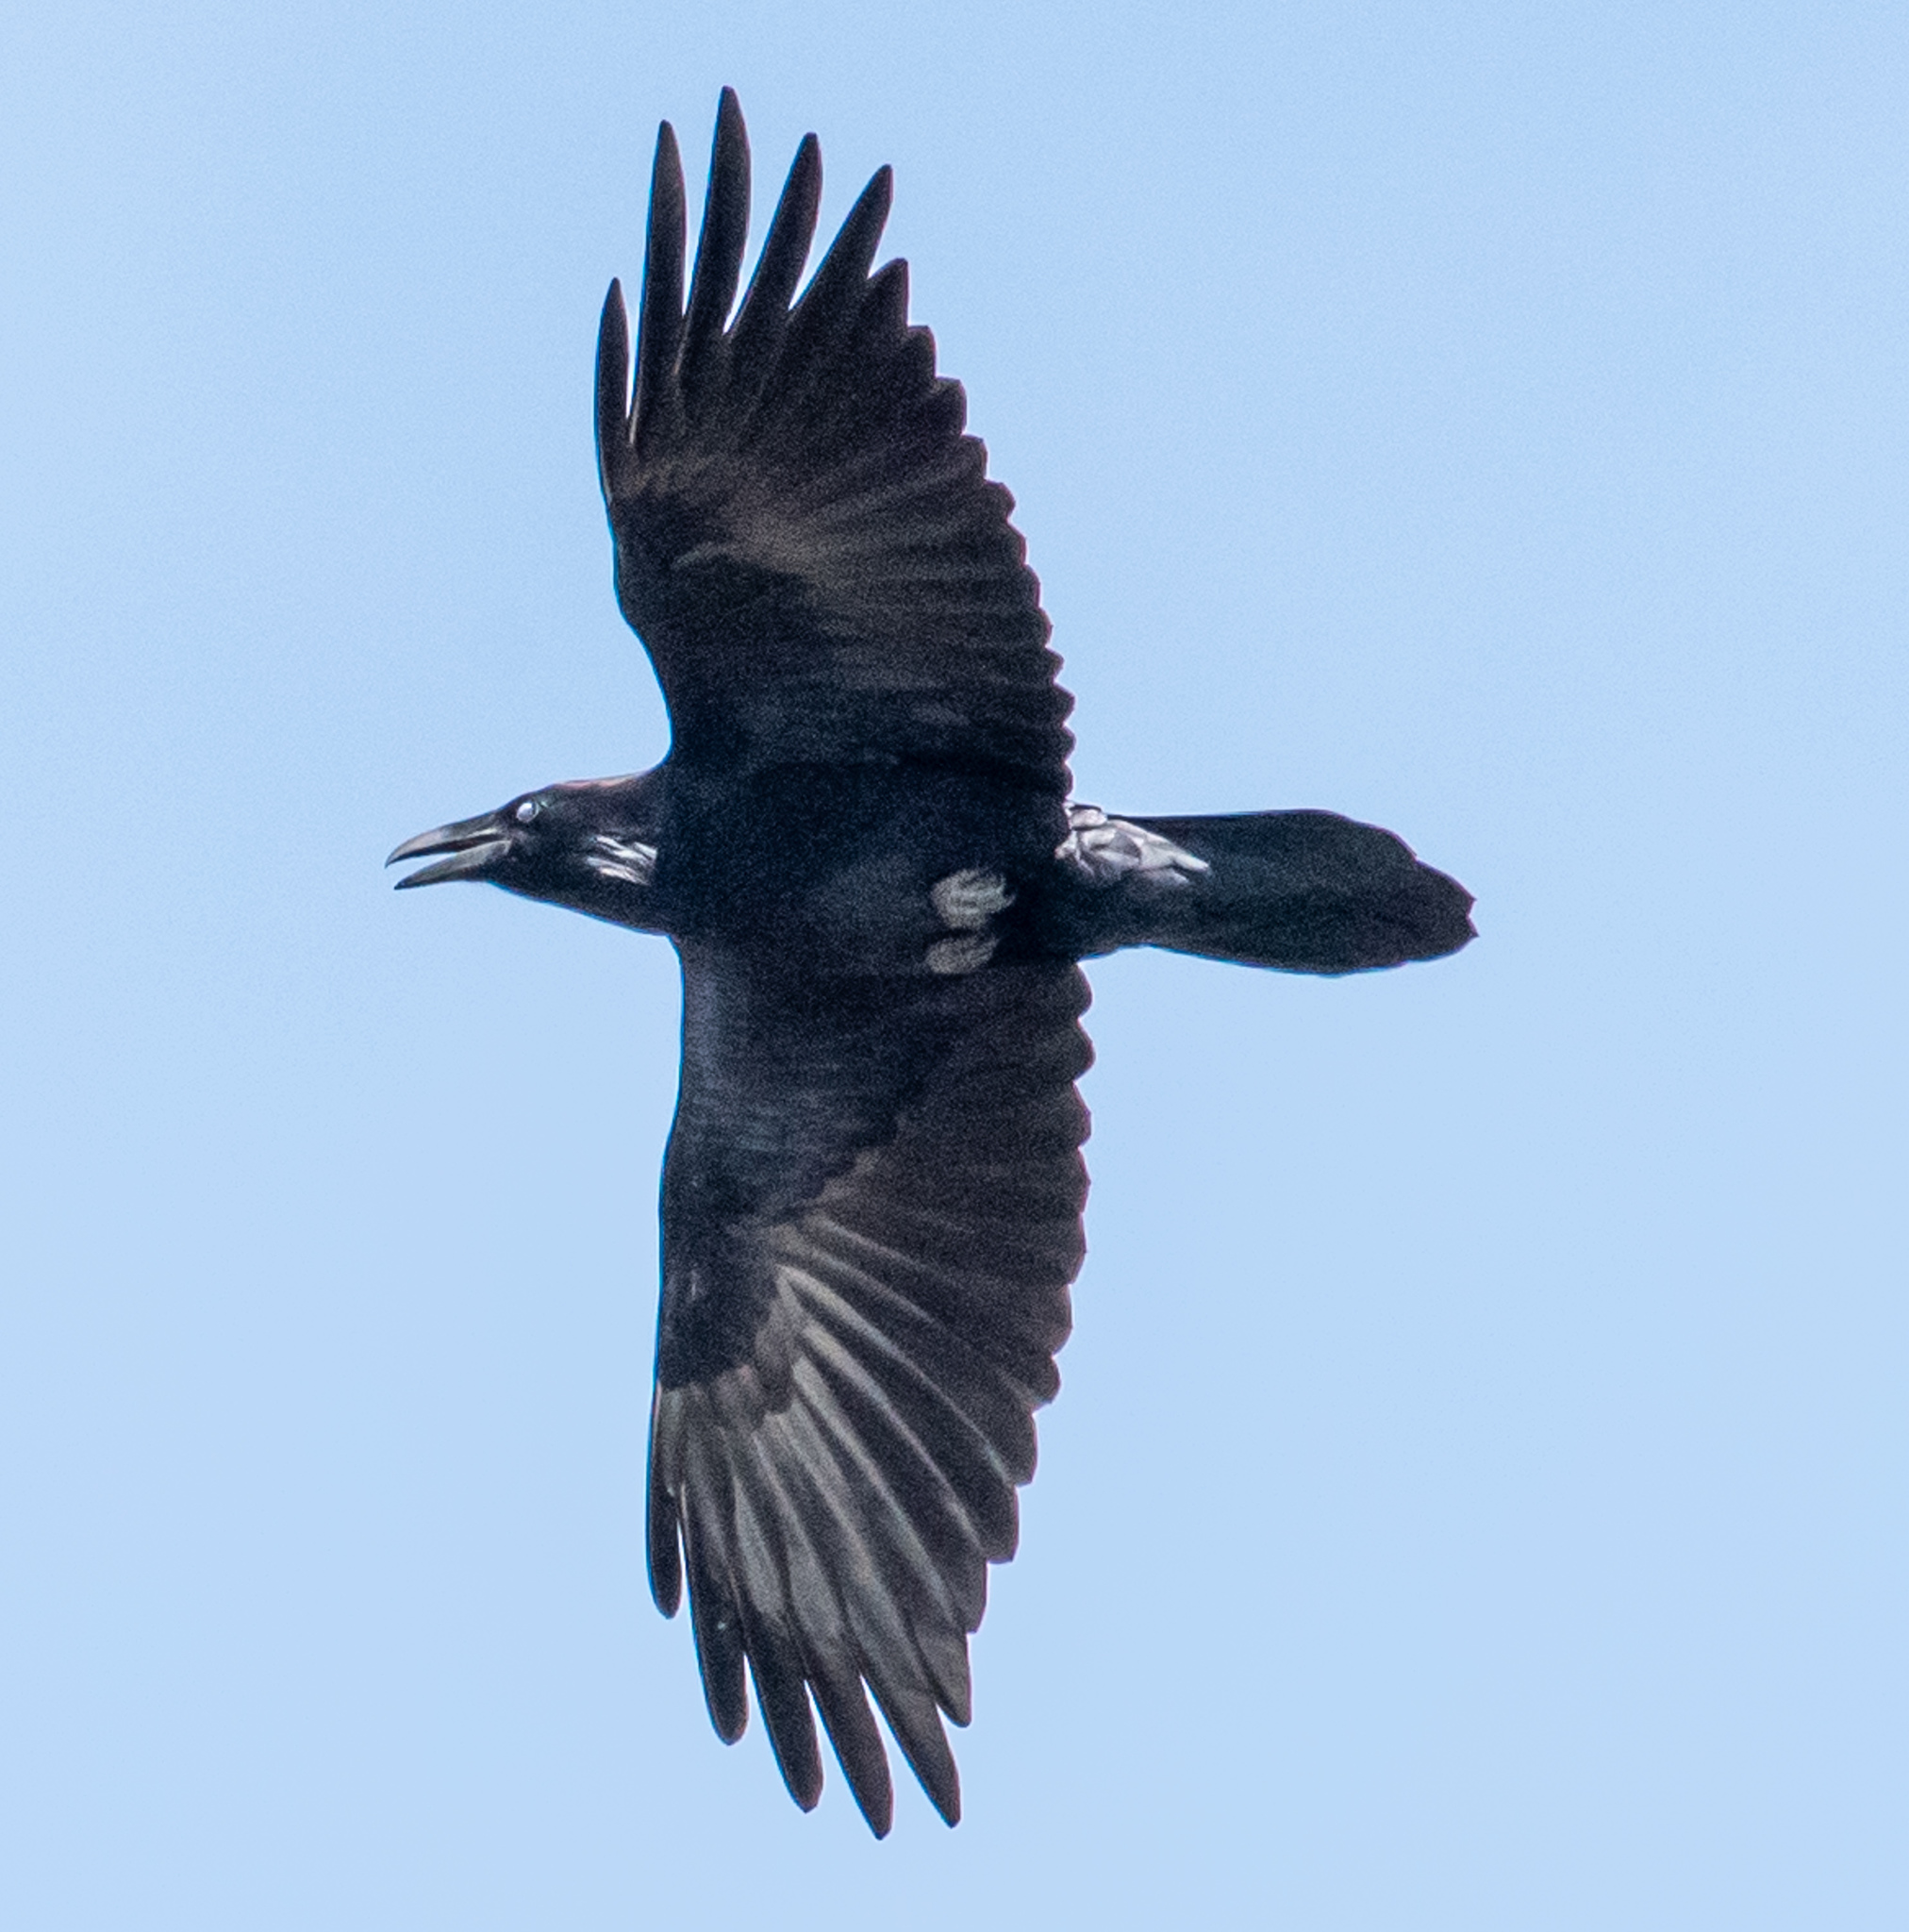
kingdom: Animalia
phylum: Chordata
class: Aves
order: Passeriformes
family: Corvidae
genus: Corvus
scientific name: Corvus corax
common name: Common raven
